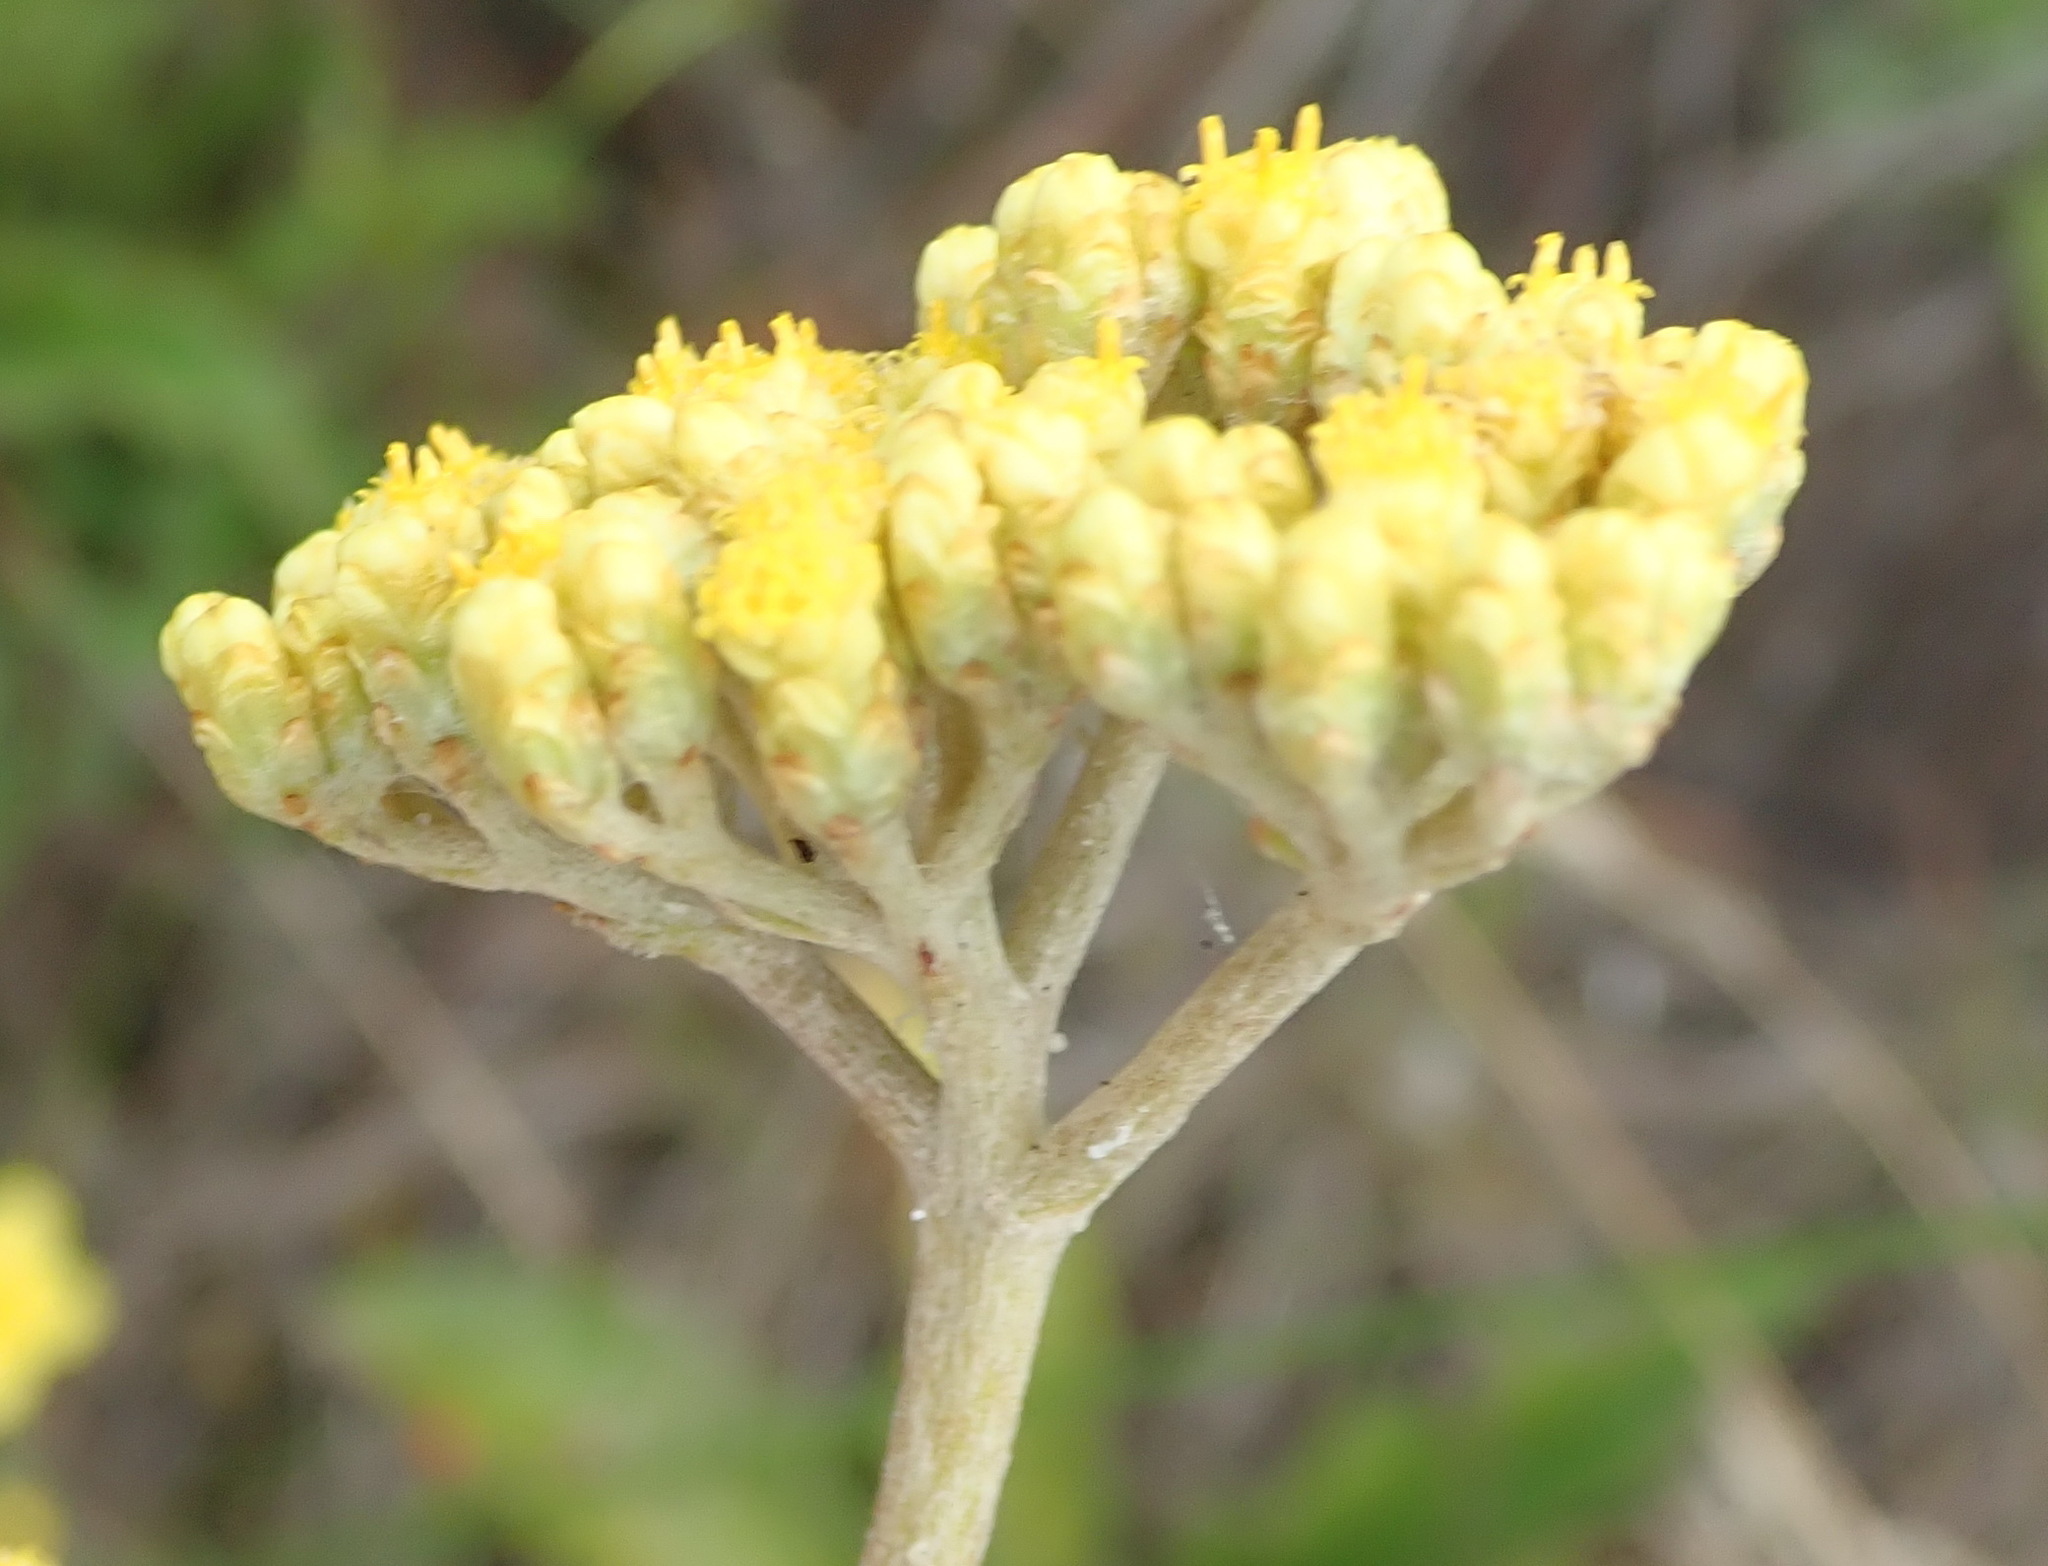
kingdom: Plantae
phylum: Tracheophyta
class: Magnoliopsida
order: Asterales
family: Asteraceae
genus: Helichrysum
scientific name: Helichrysum nudifolium
